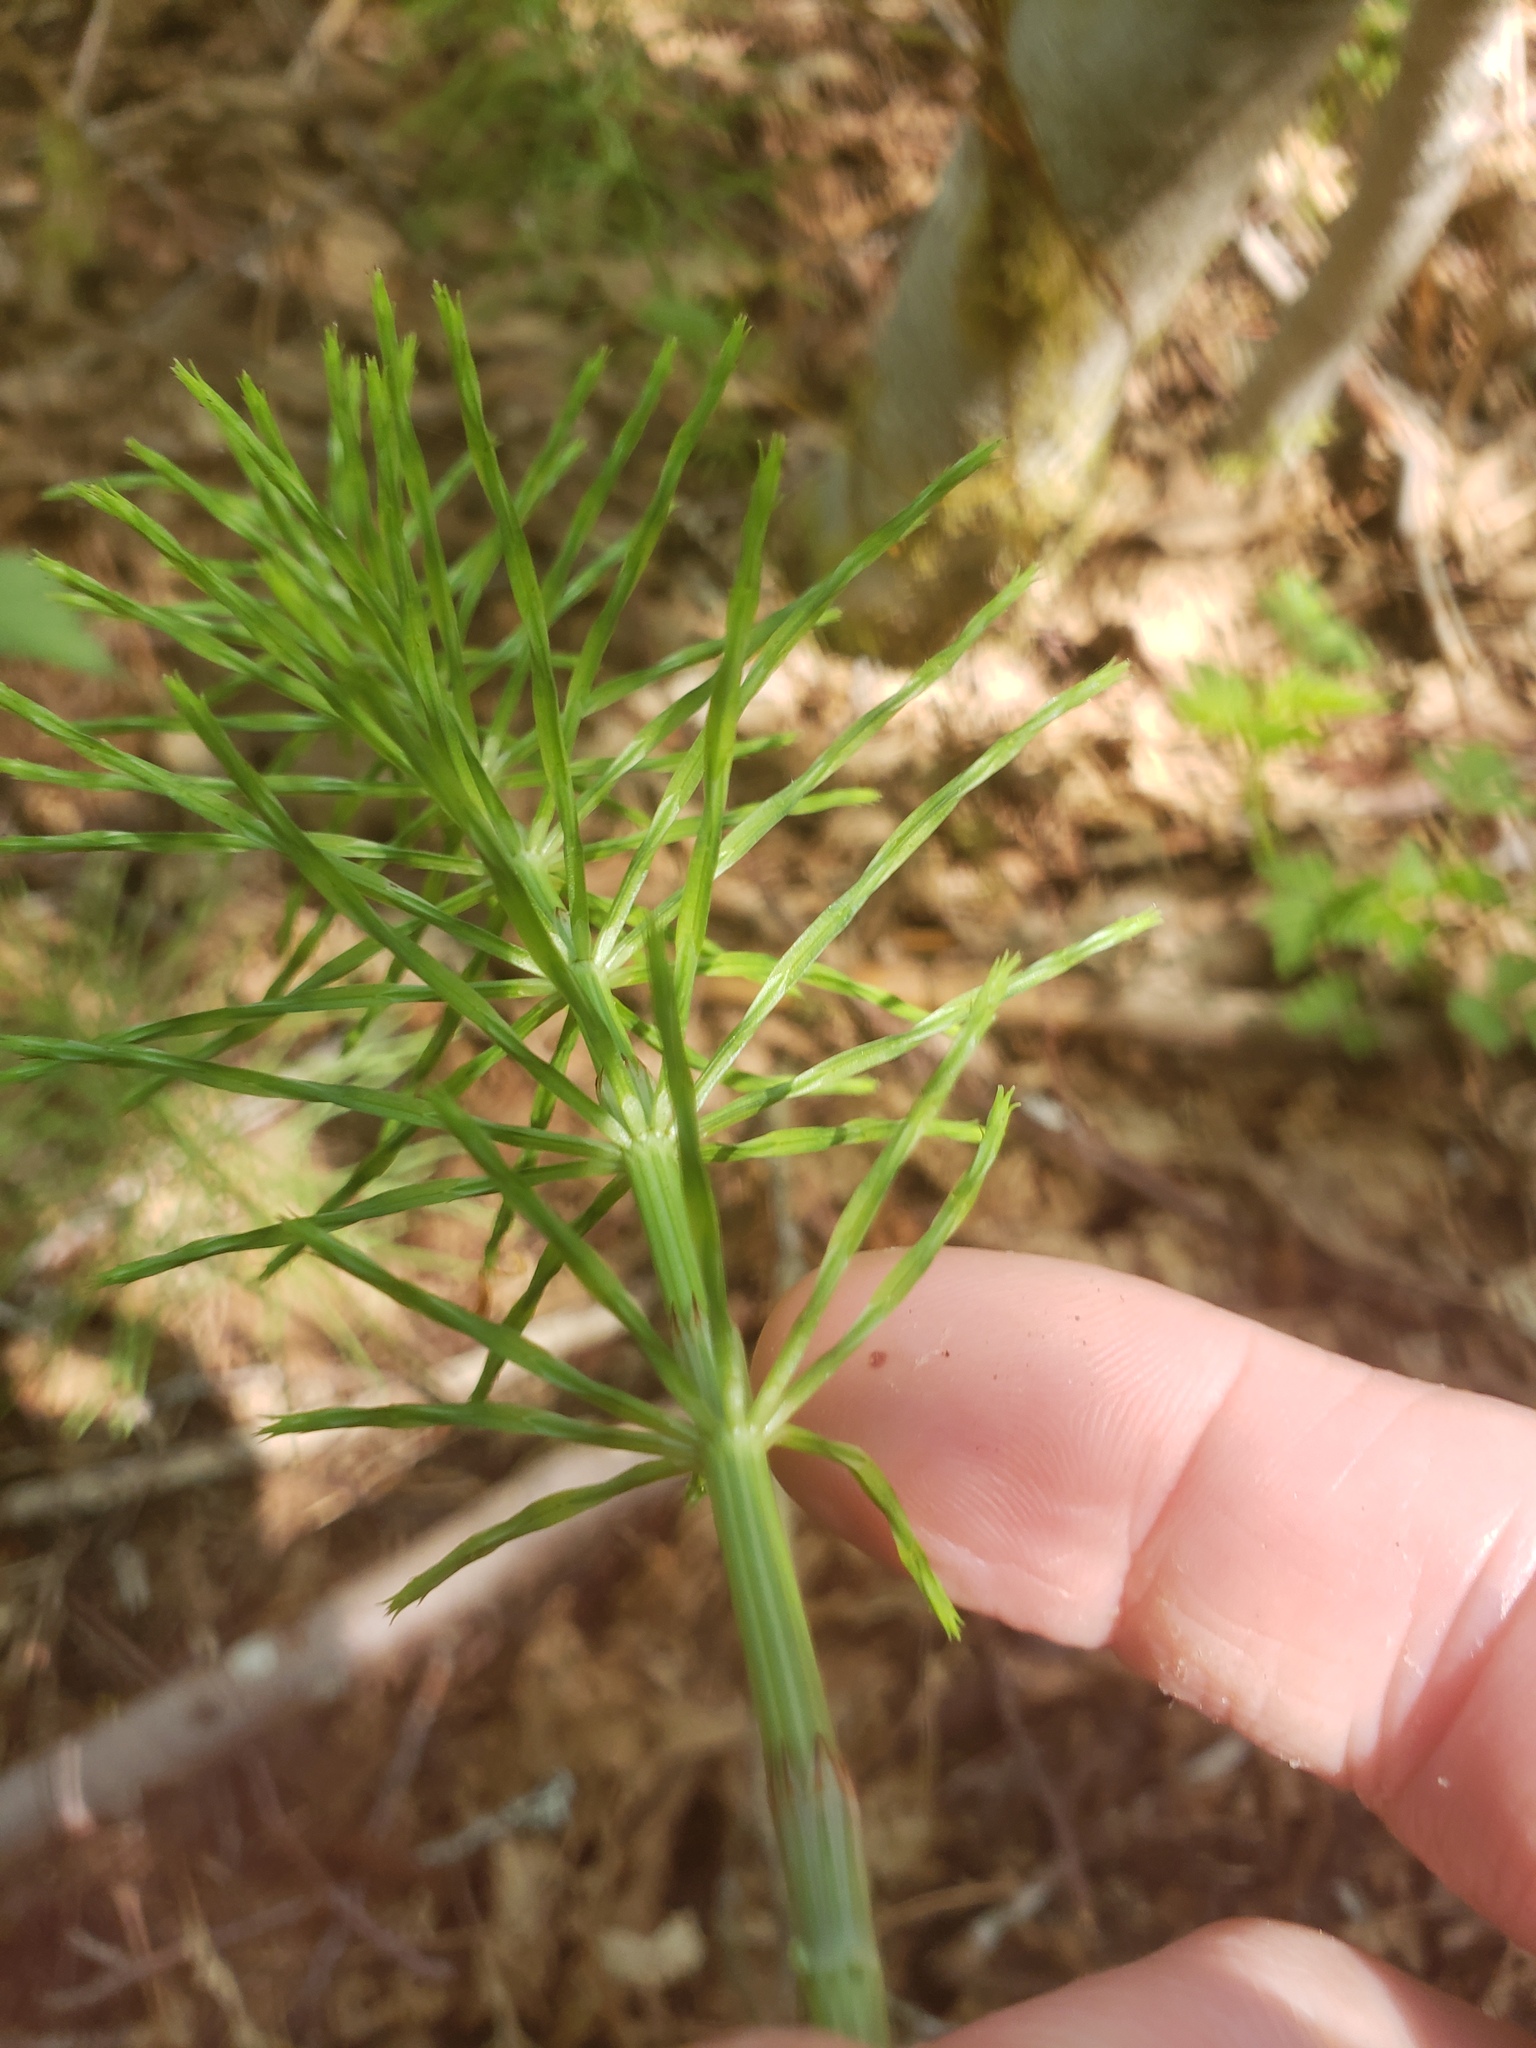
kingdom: Plantae
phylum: Tracheophyta
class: Polypodiopsida
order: Equisetales
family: Equisetaceae
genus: Equisetum
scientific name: Equisetum arvense
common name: Field horsetail
